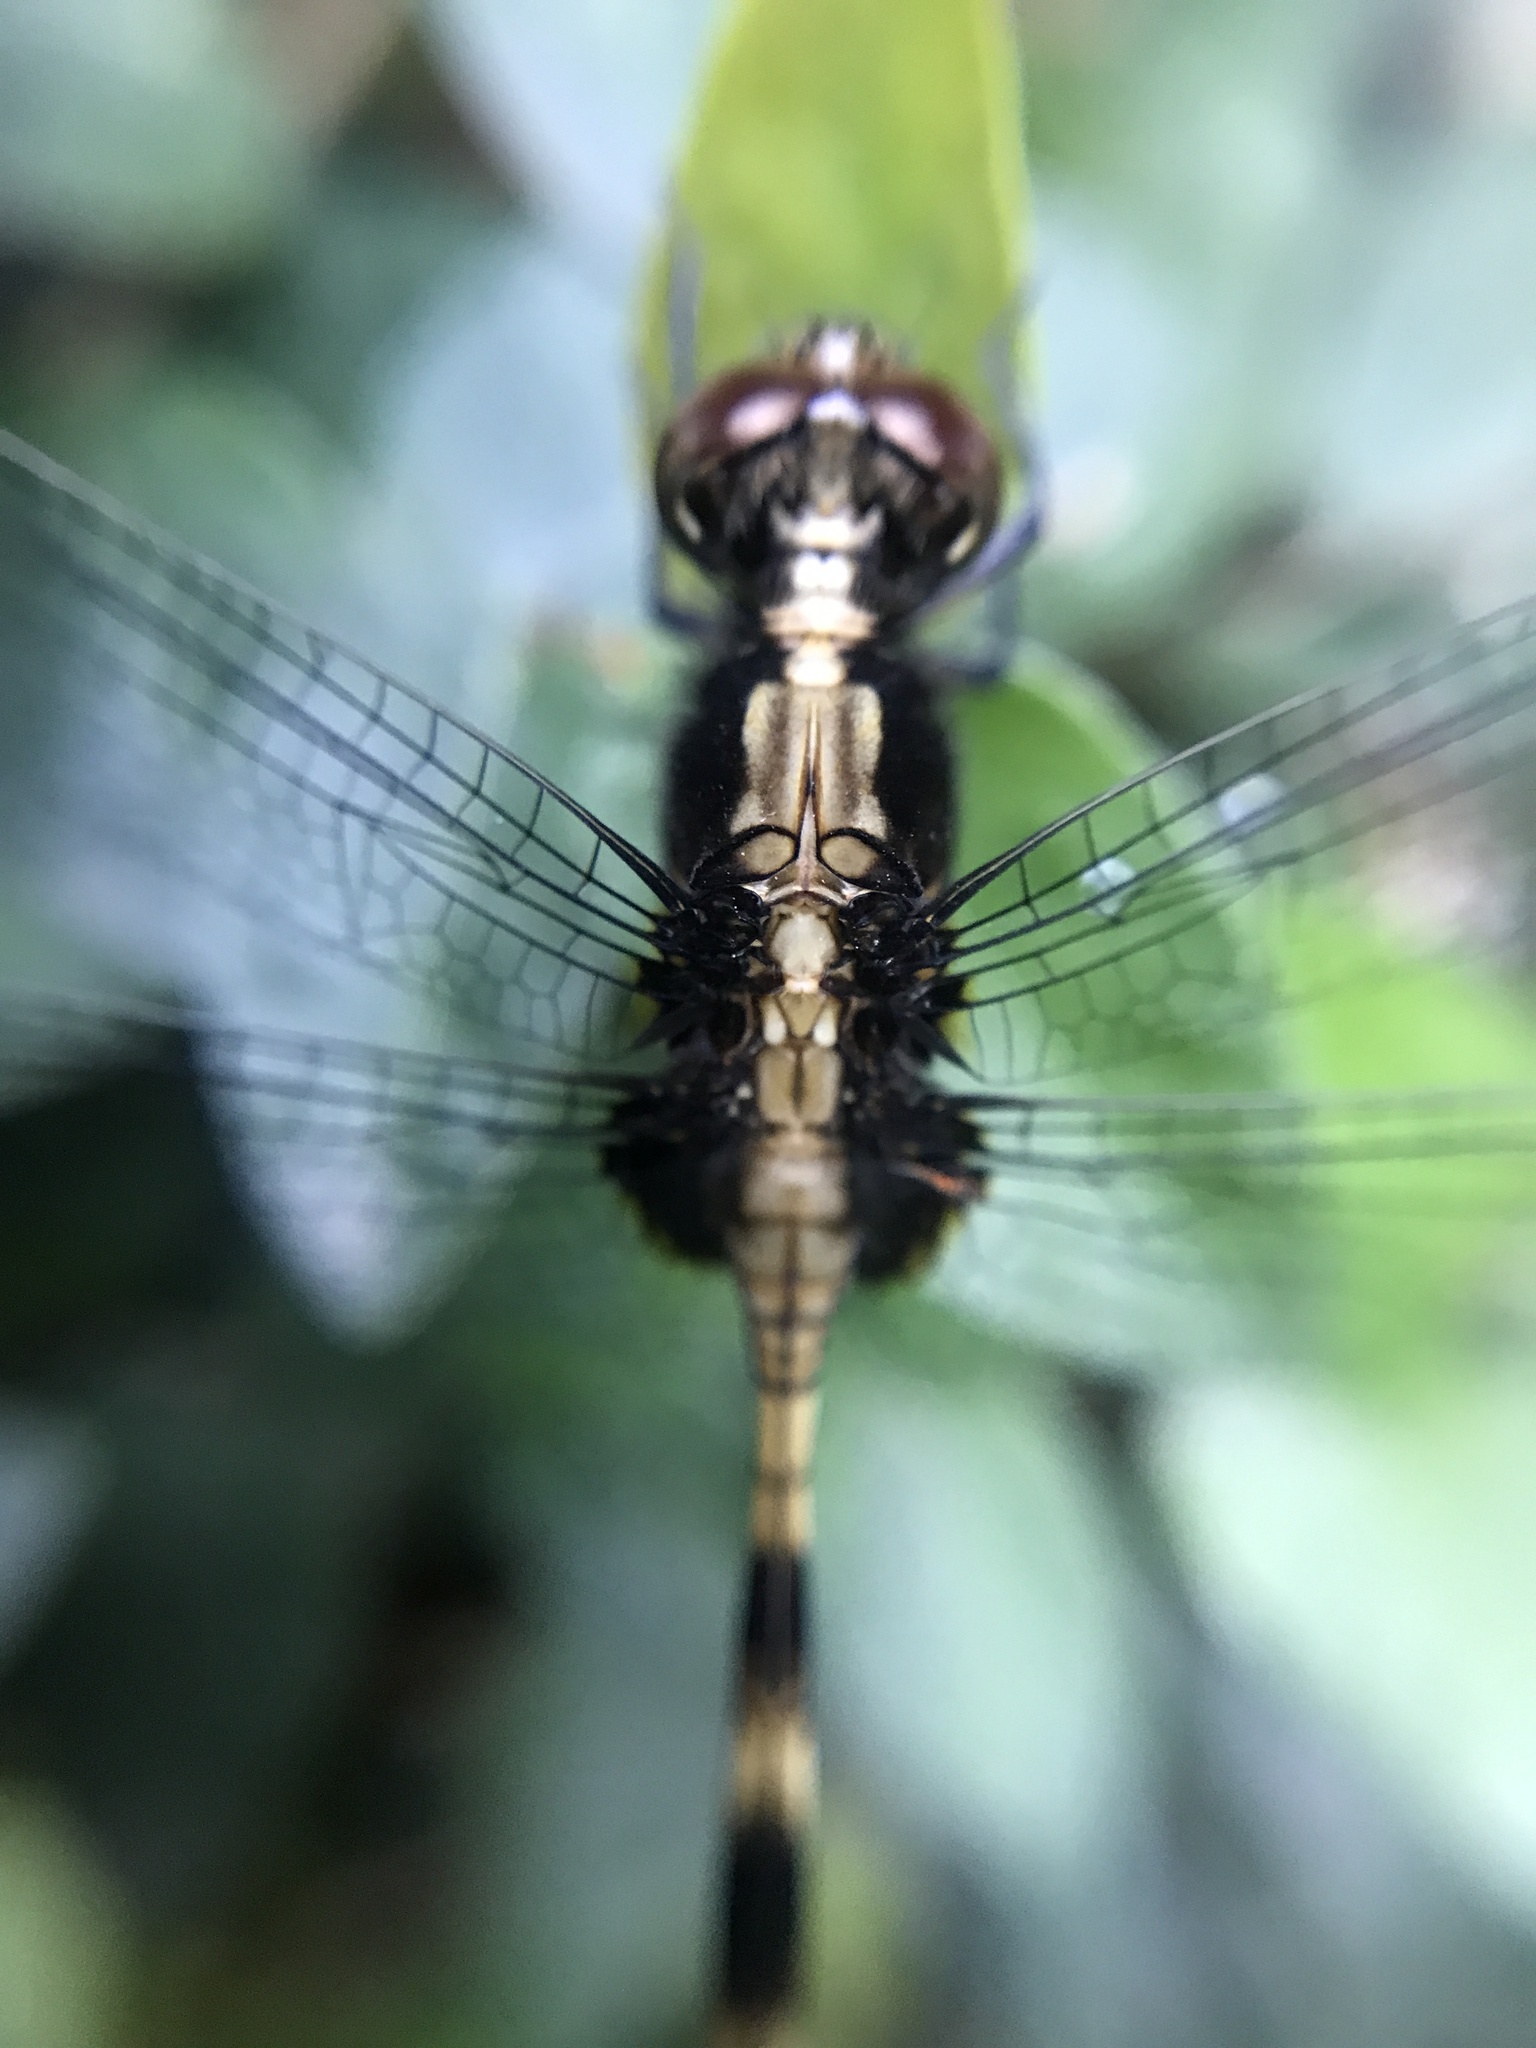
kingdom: Animalia
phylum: Arthropoda
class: Insecta
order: Odonata
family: Libellulidae
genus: Erythemis
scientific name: Erythemis plebeja
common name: Pin-tailed pondhawk
